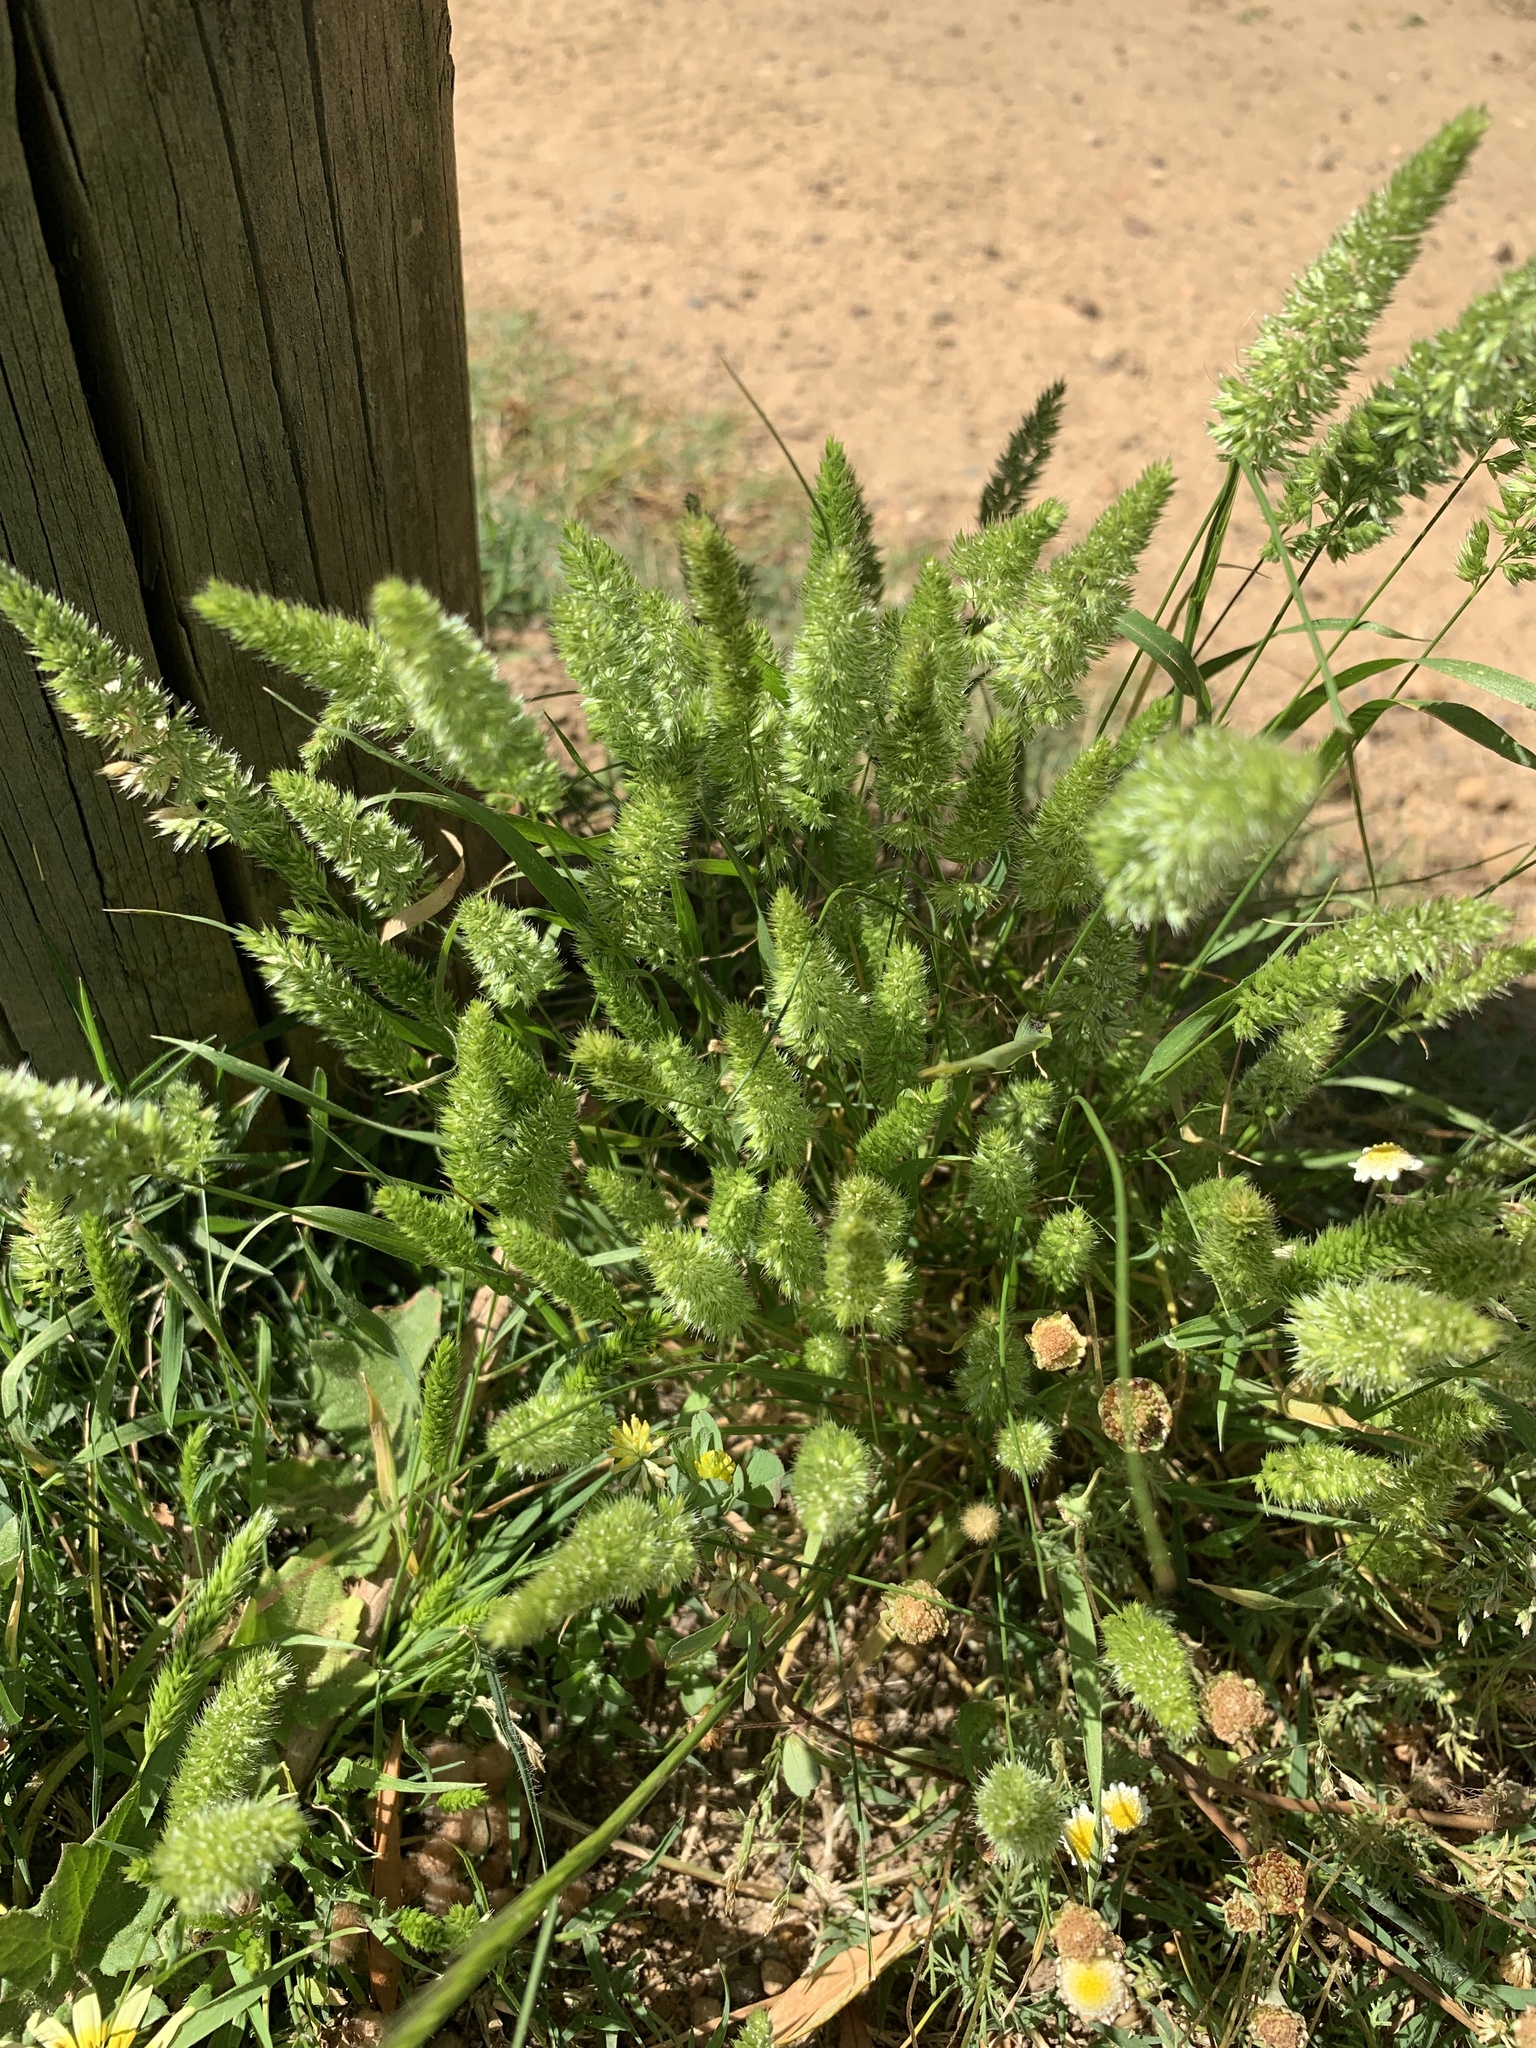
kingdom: Plantae
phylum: Tracheophyta
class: Liliopsida
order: Poales
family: Poaceae
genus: Rostraria
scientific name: Rostraria cristata
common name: Mediterranean hair-grass
